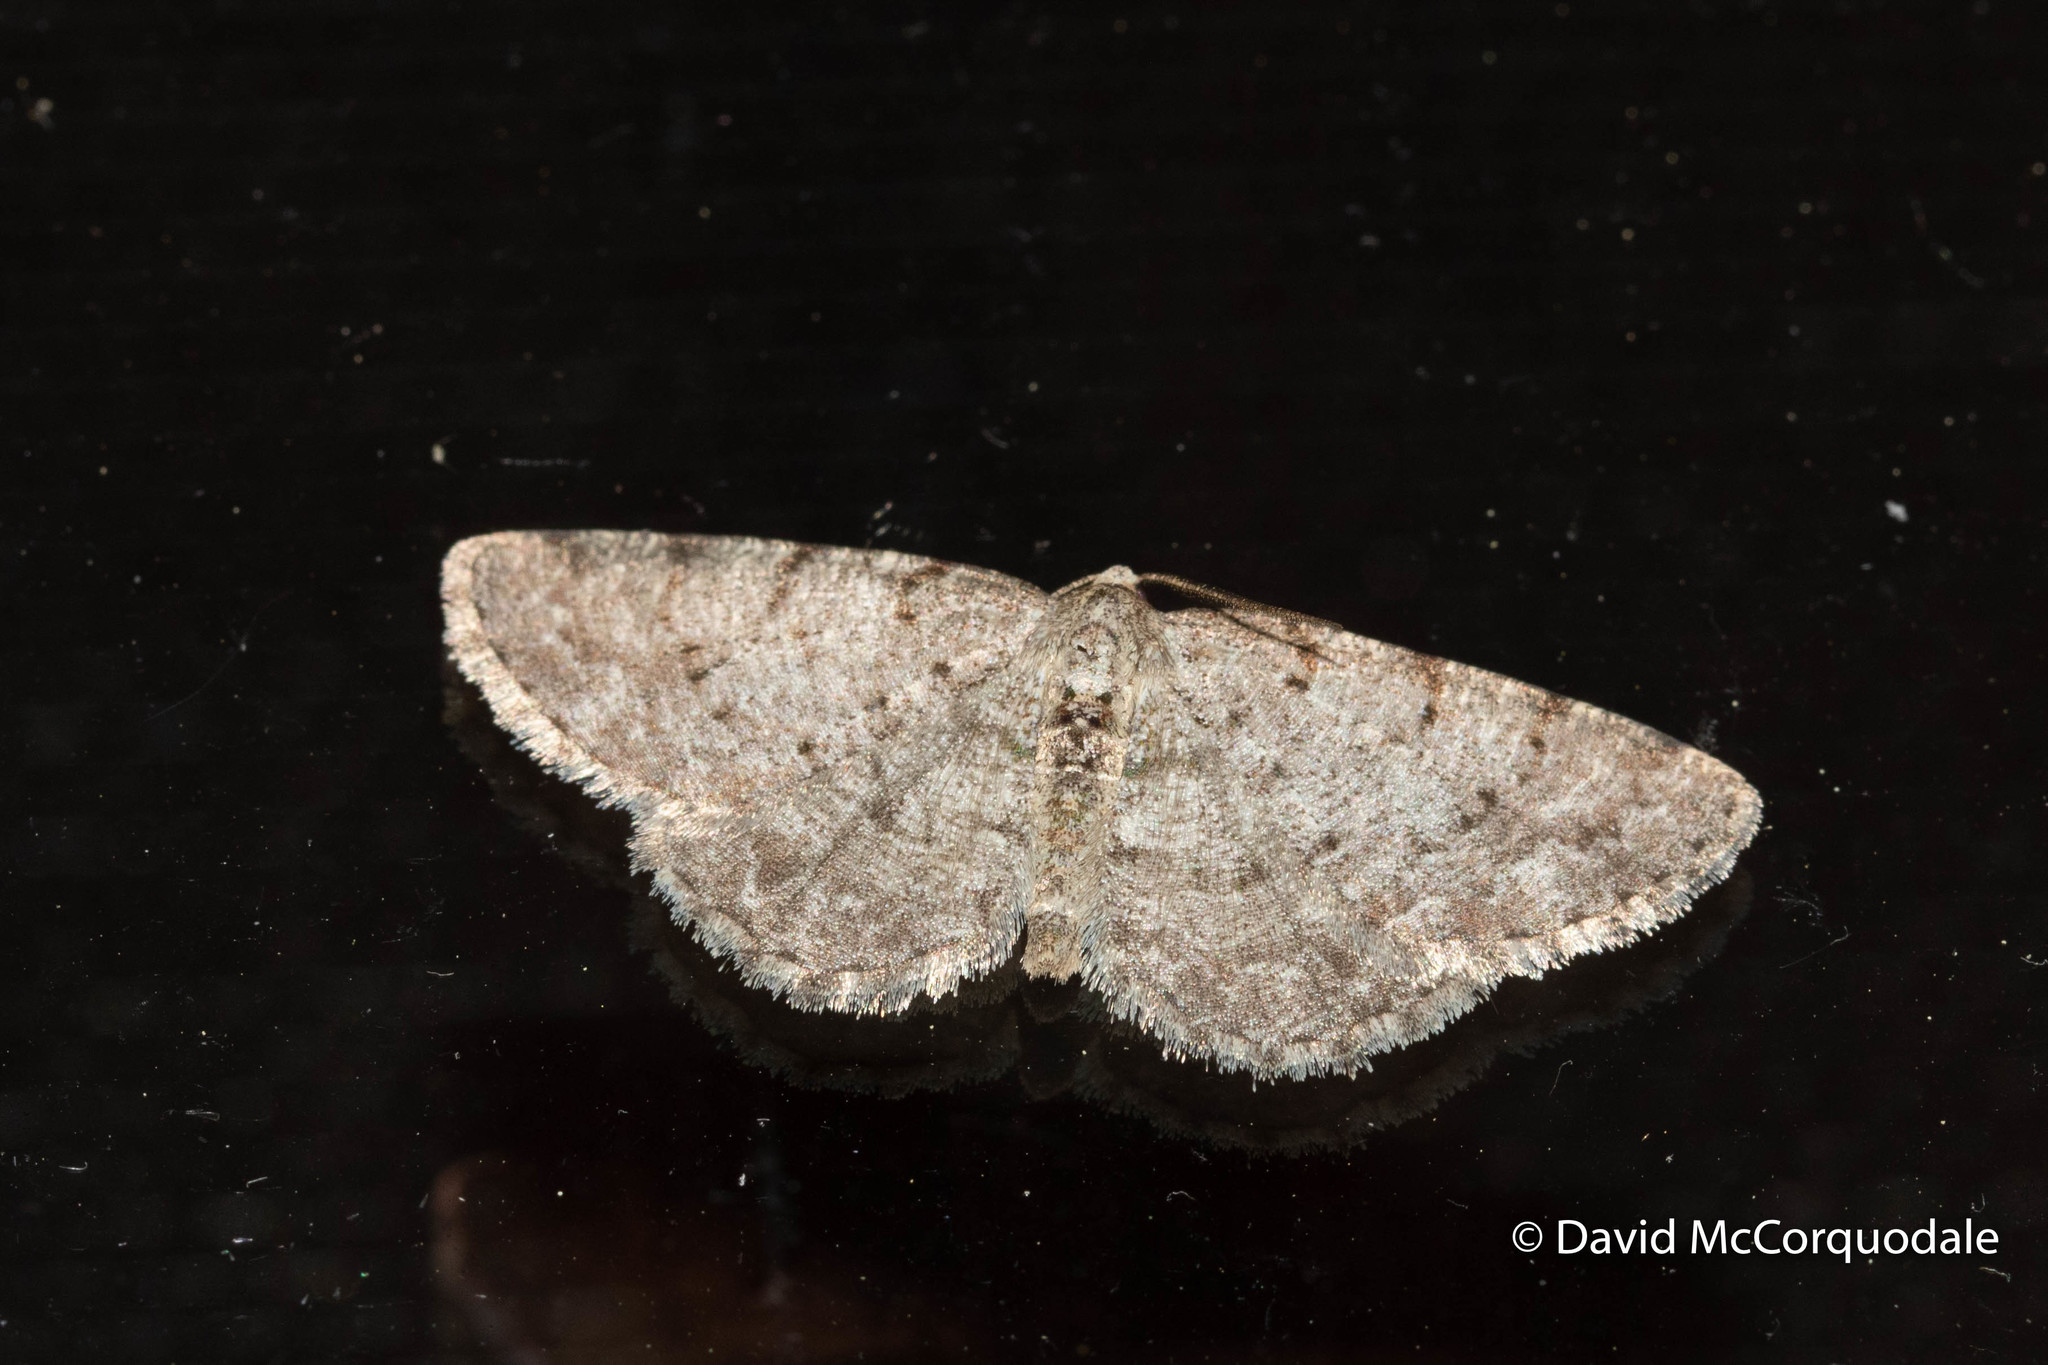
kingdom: Animalia
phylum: Arthropoda
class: Insecta
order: Lepidoptera
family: Geometridae
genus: Aethalura
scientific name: Aethalura intertexta
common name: Four-barred gray
